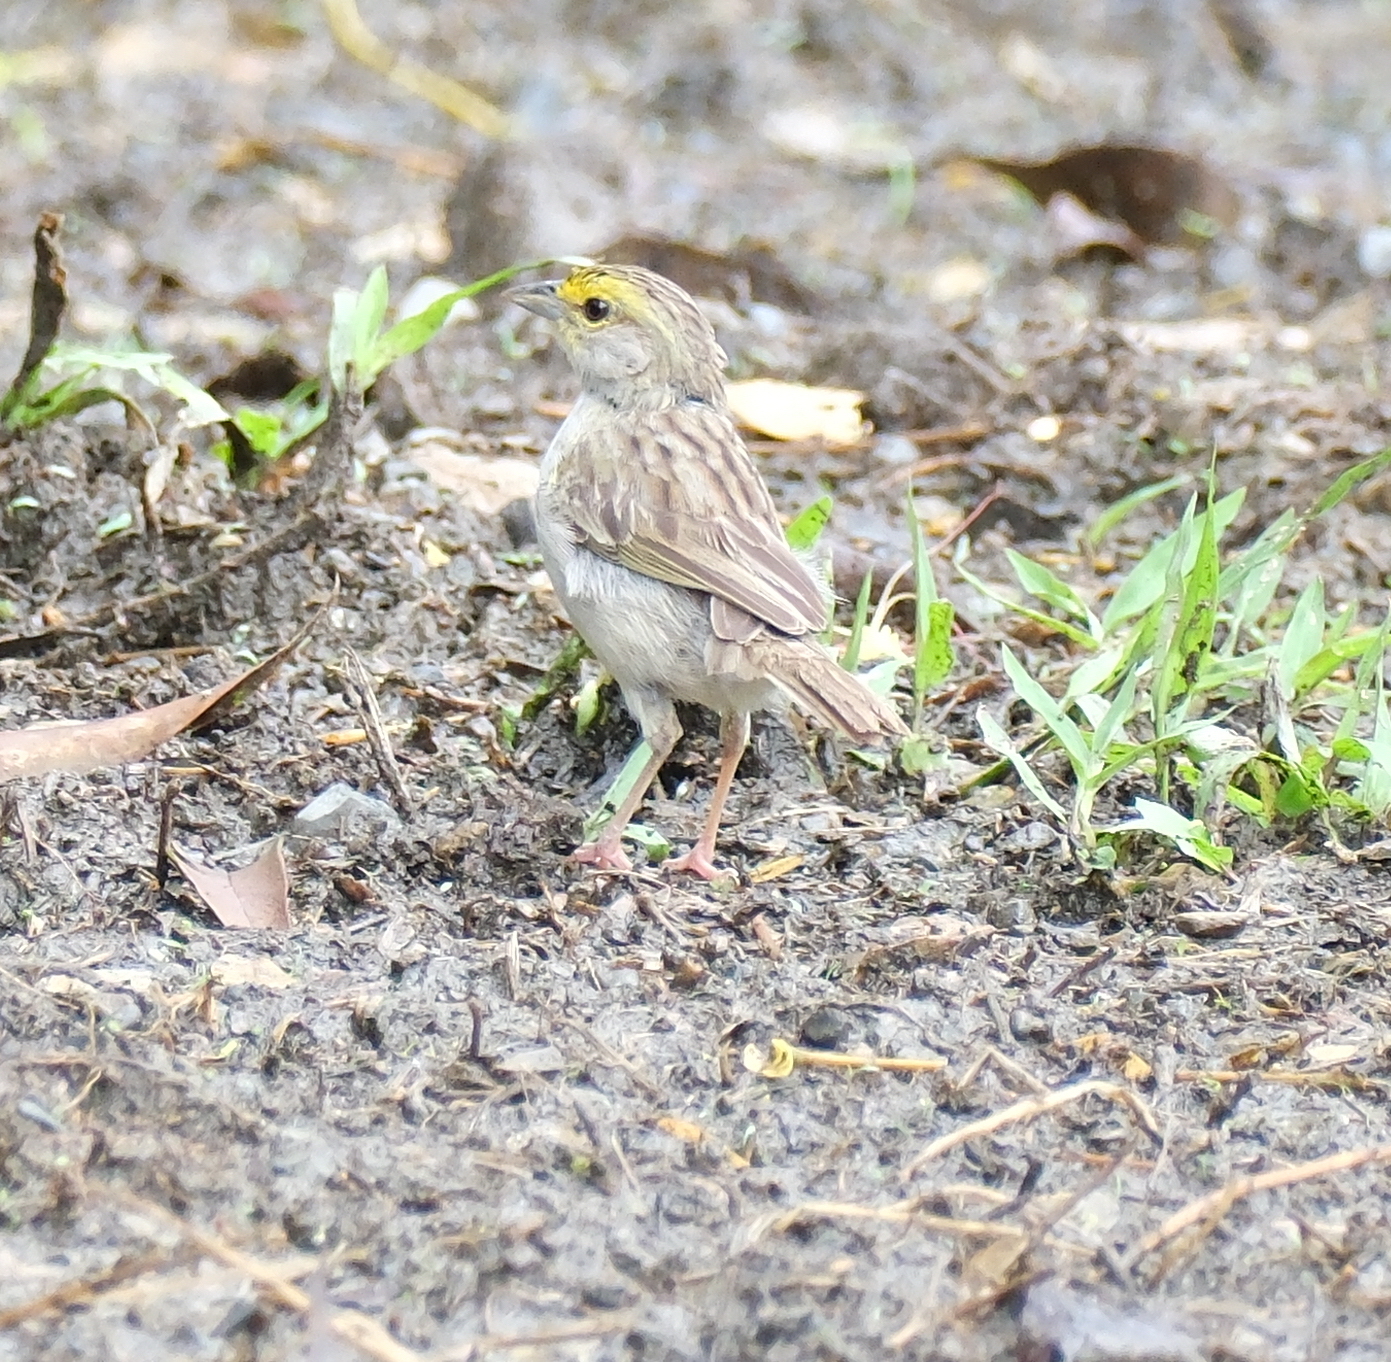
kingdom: Animalia
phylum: Chordata
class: Aves
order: Passeriformes
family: Passerellidae
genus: Ammodramus
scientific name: Ammodramus aurifrons
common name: Yellow-browed sparrow
